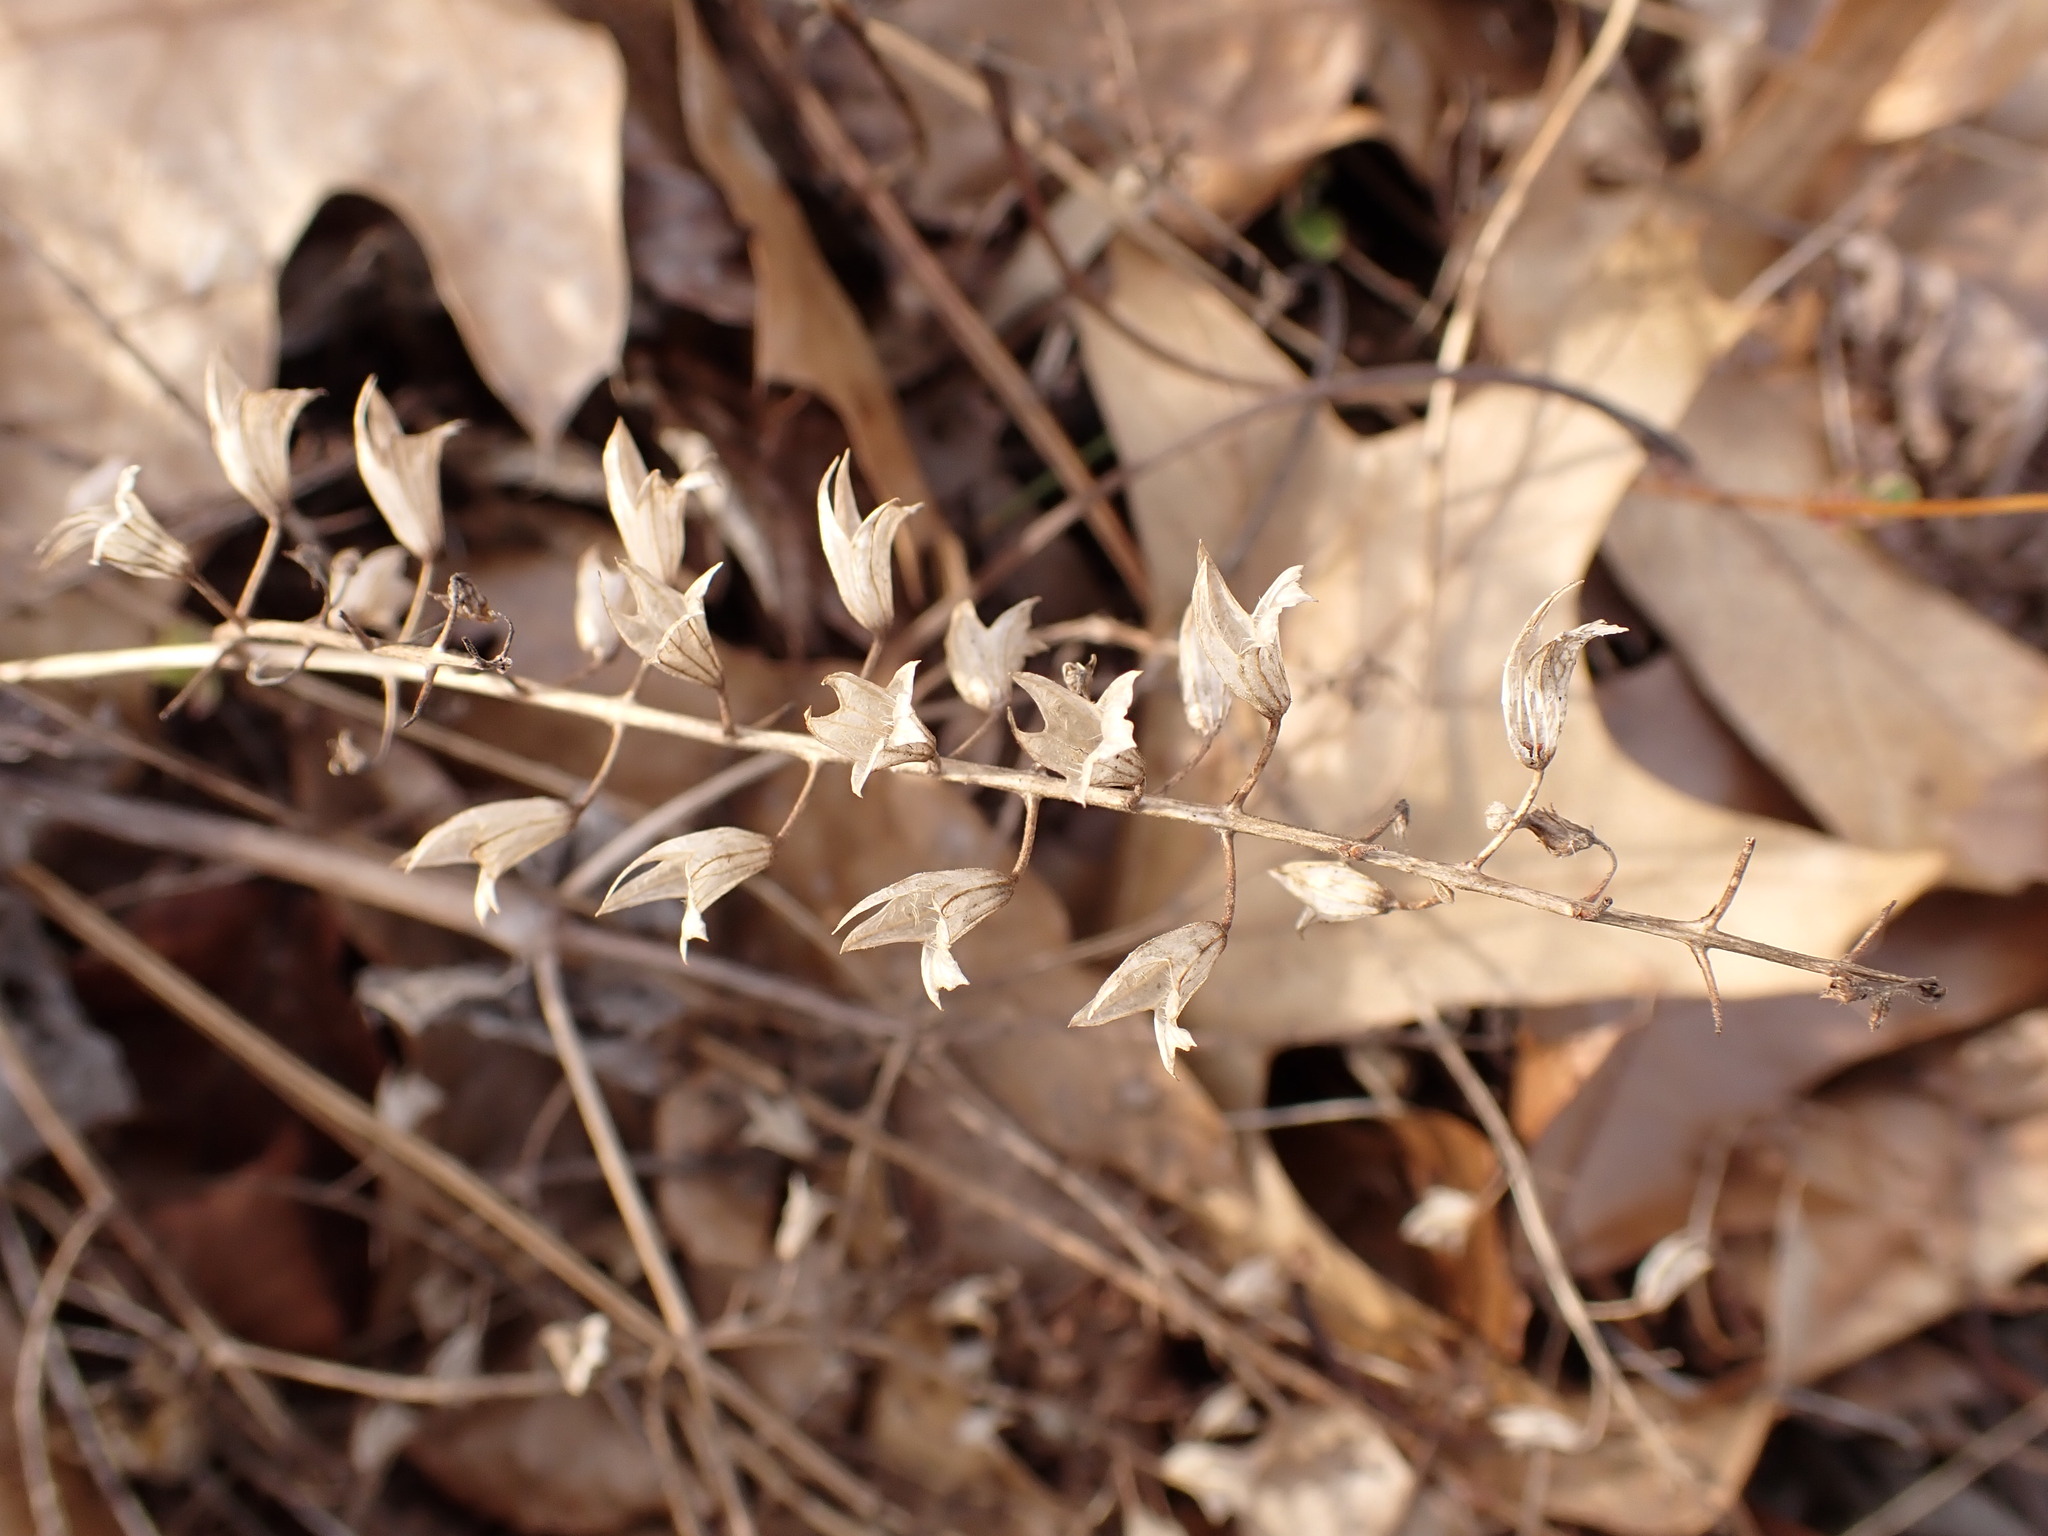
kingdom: Plantae
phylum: Tracheophyta
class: Magnoliopsida
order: Lamiales
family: Lamiaceae
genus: Collinsonia
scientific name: Collinsonia canadensis
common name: Northern horsebalm
